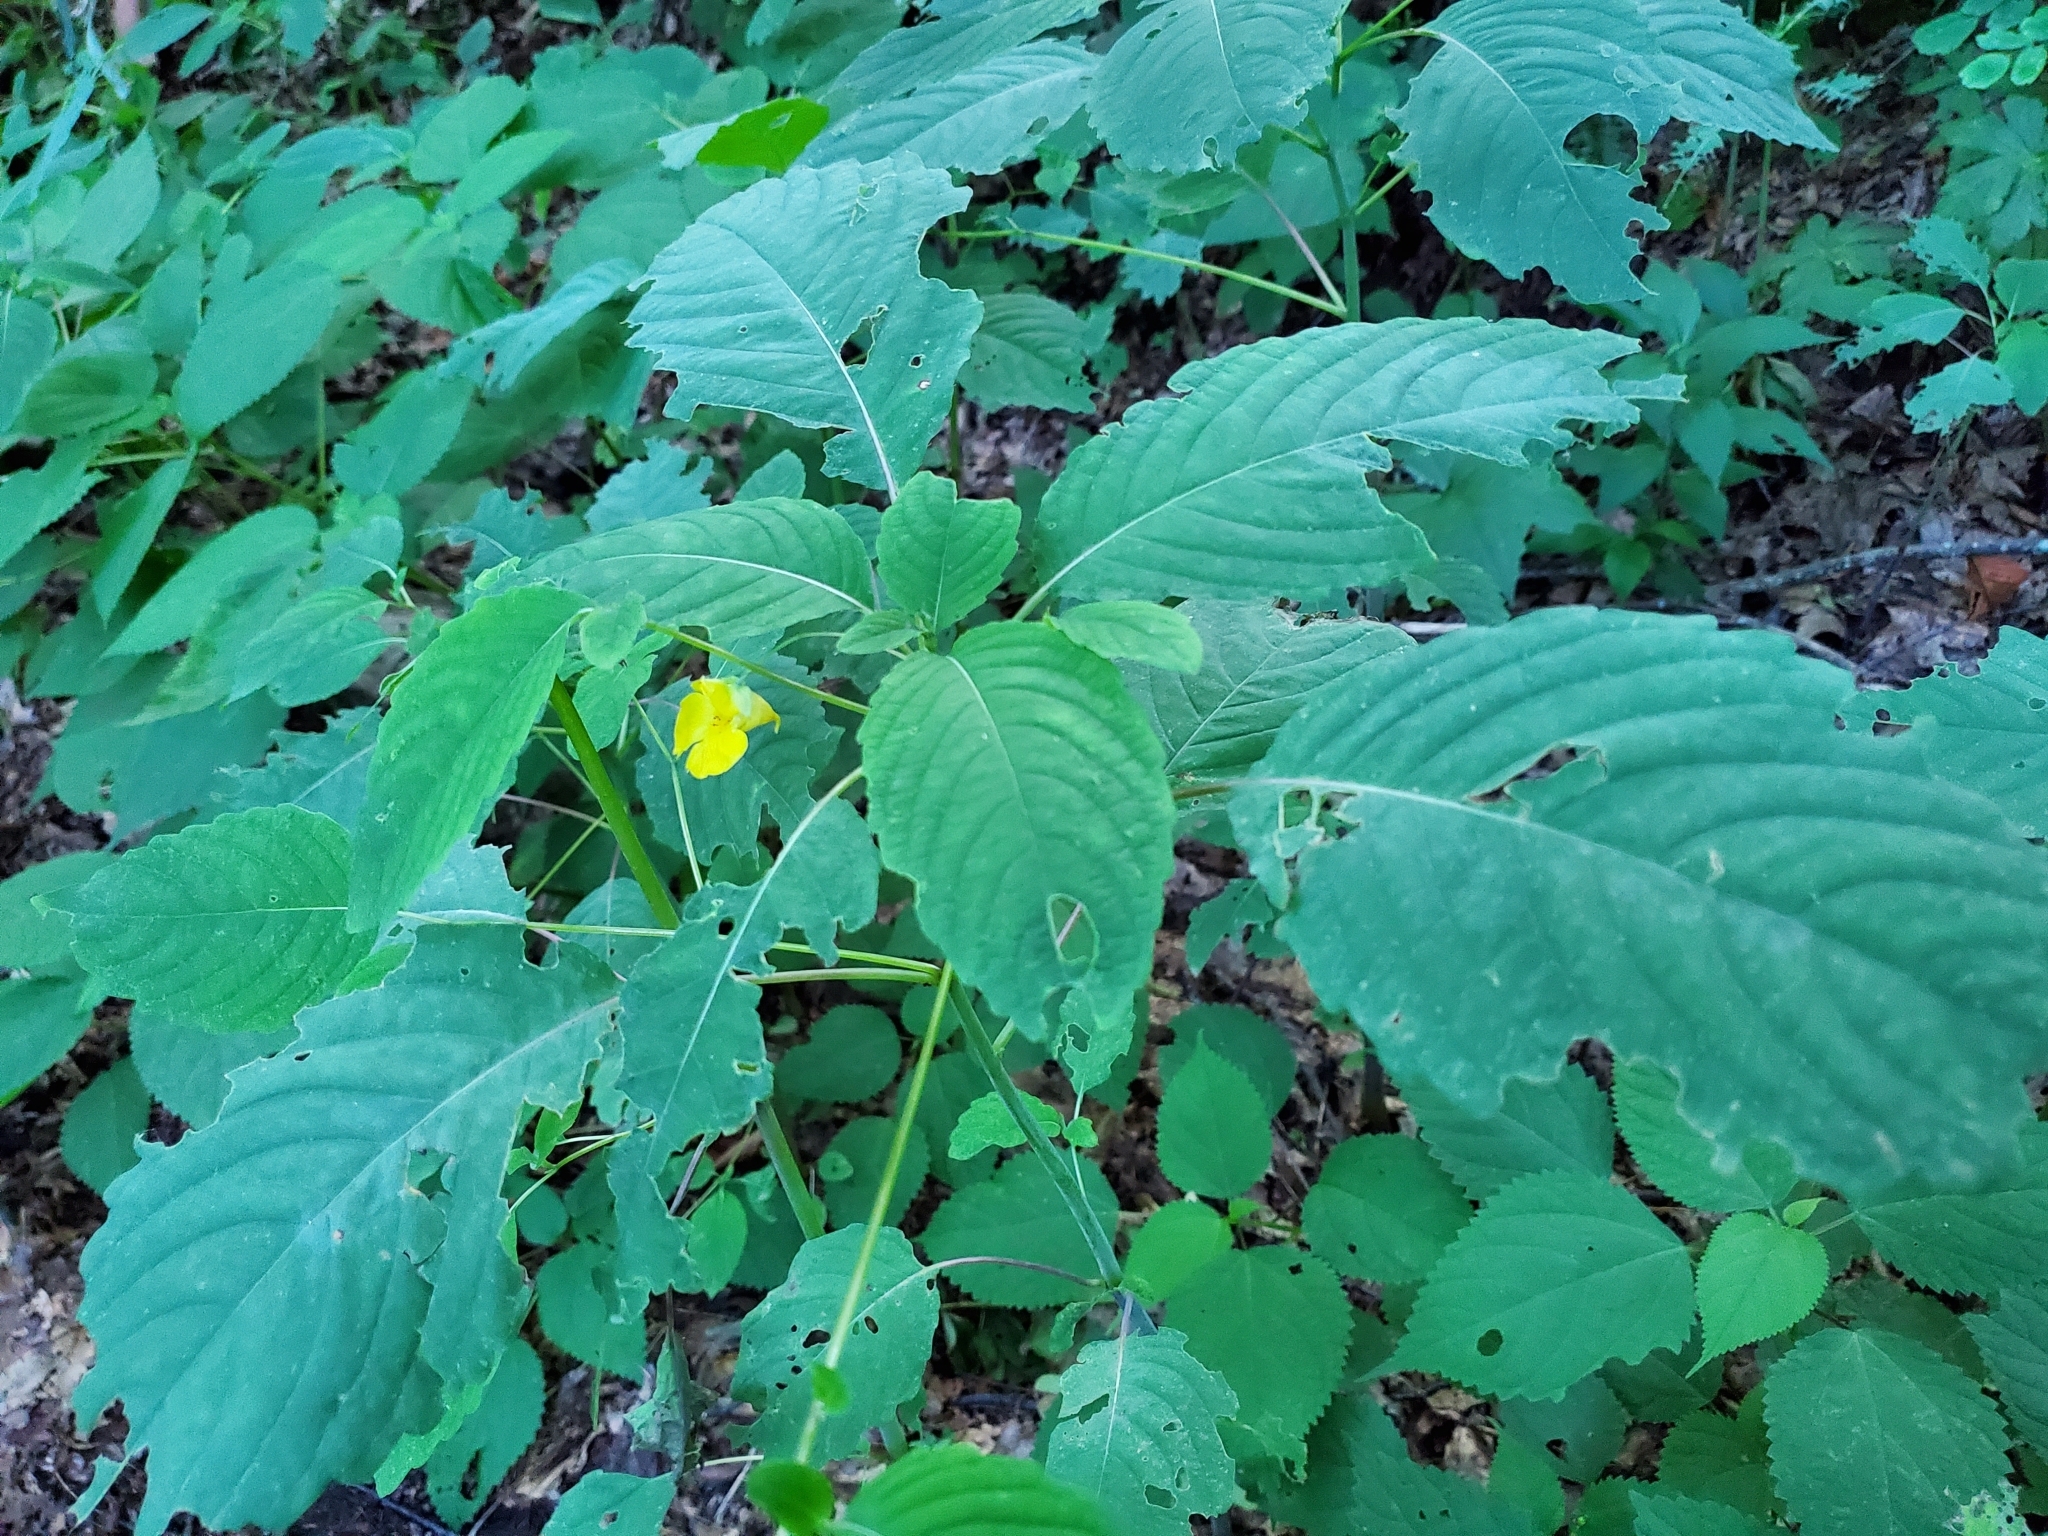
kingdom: Plantae
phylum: Tracheophyta
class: Magnoliopsida
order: Ericales
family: Balsaminaceae
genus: Impatiens
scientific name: Impatiens pallida
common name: Pale snapweed
